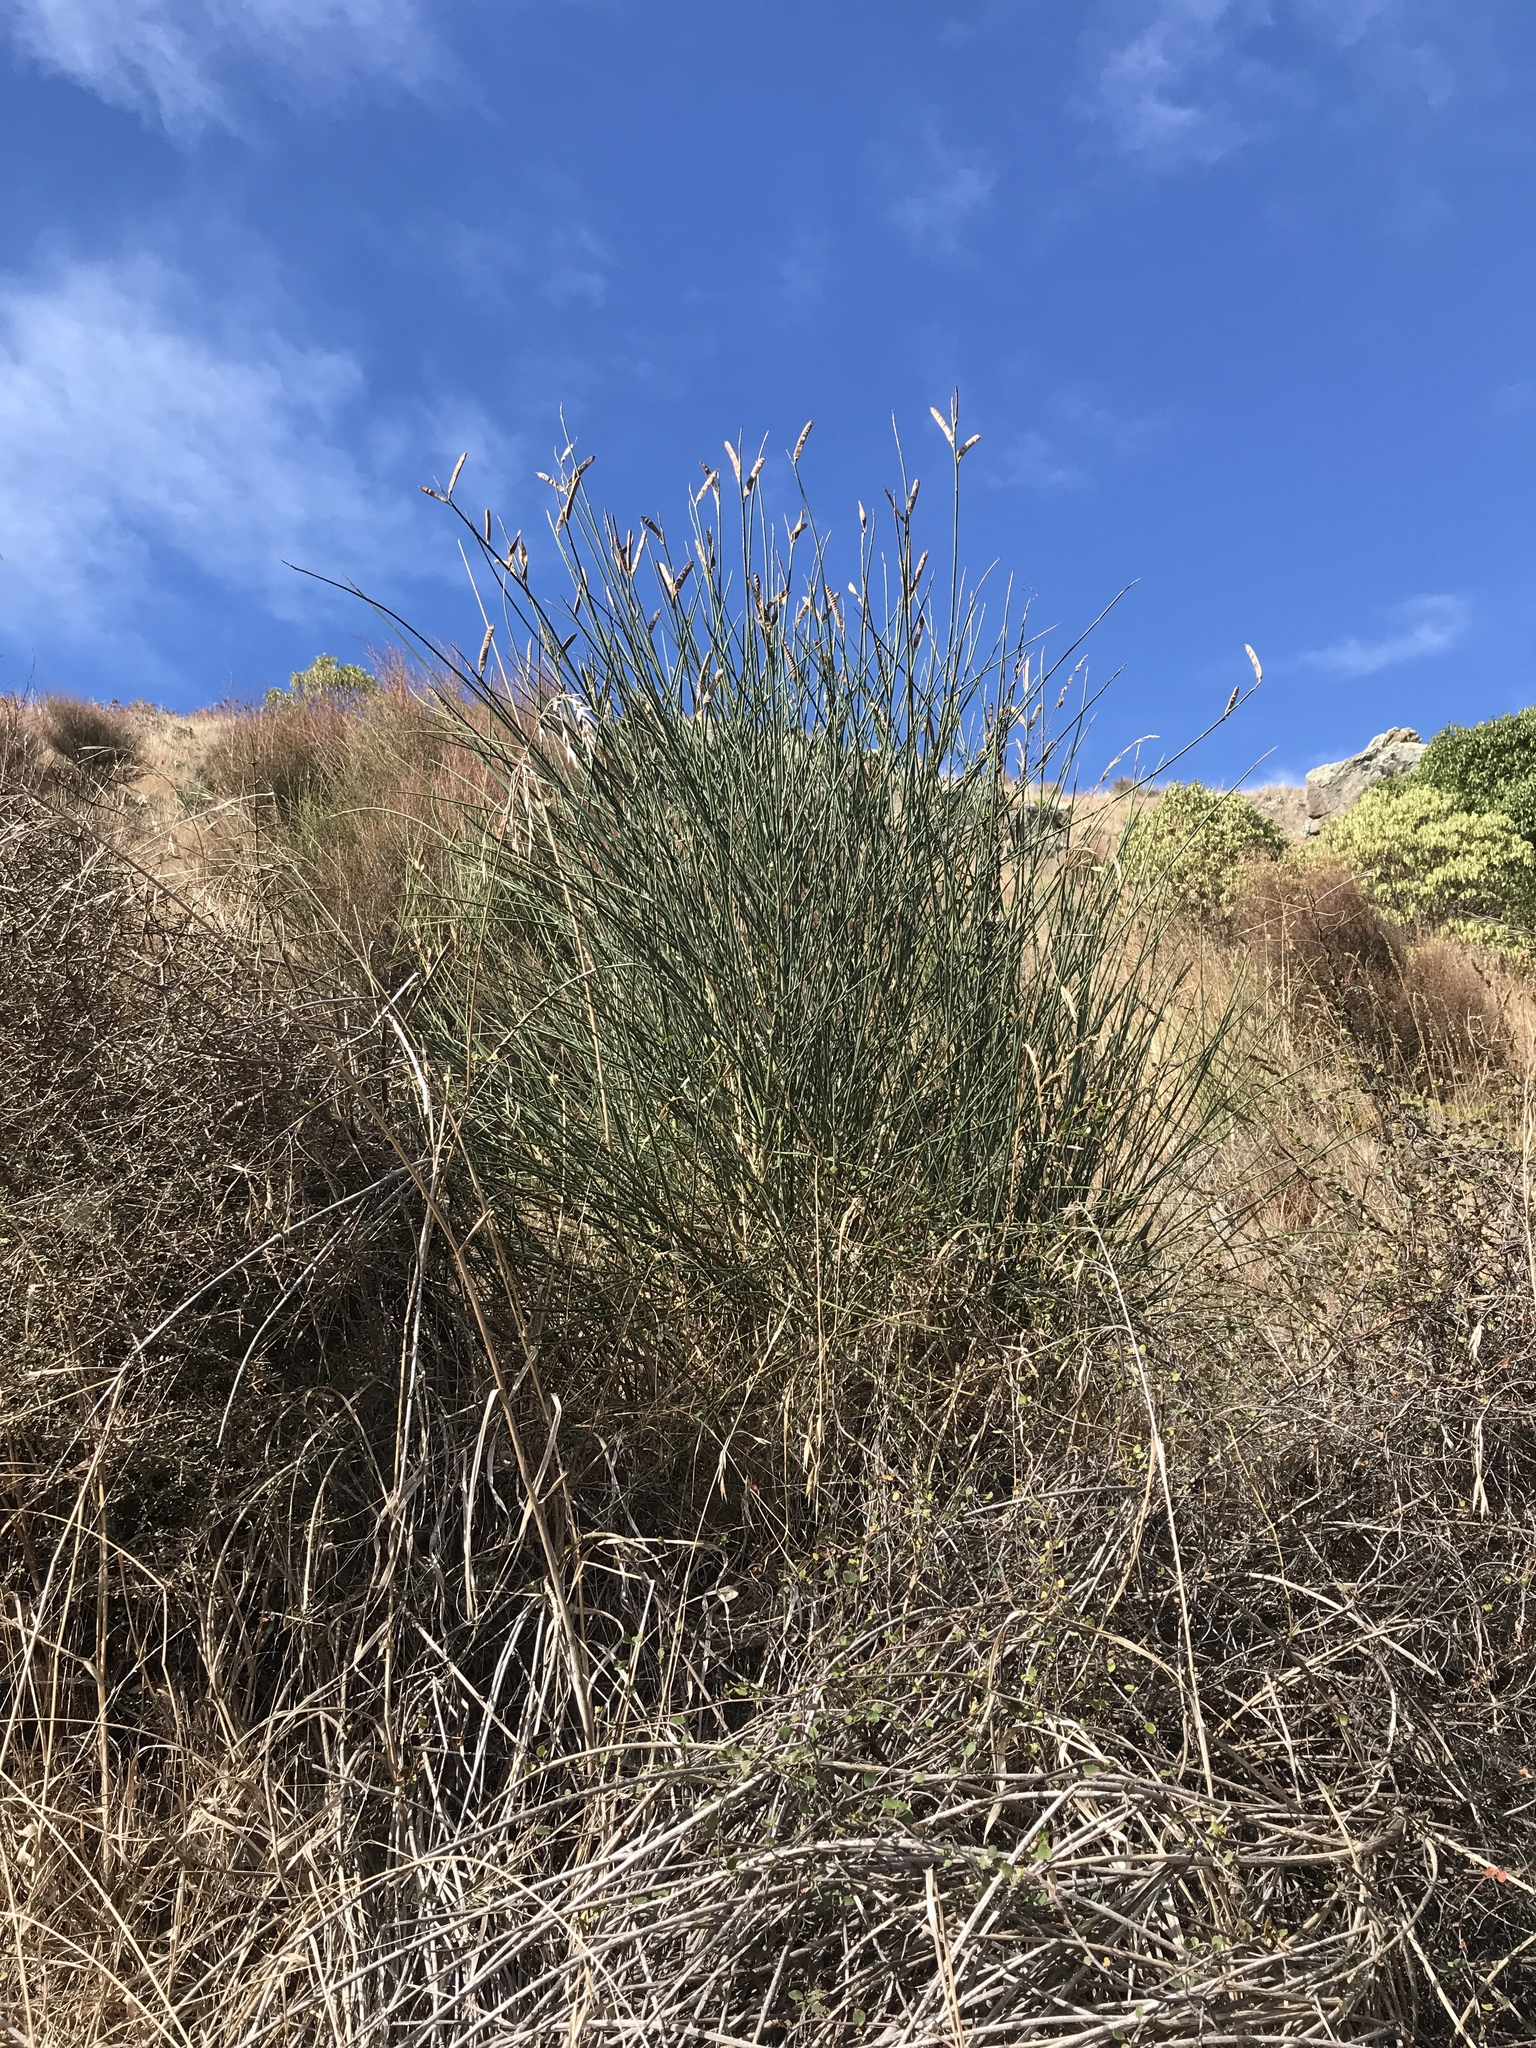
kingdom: Plantae
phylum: Tracheophyta
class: Magnoliopsida
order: Fabales
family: Fabaceae
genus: Spartium
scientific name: Spartium junceum
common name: Spanish broom
